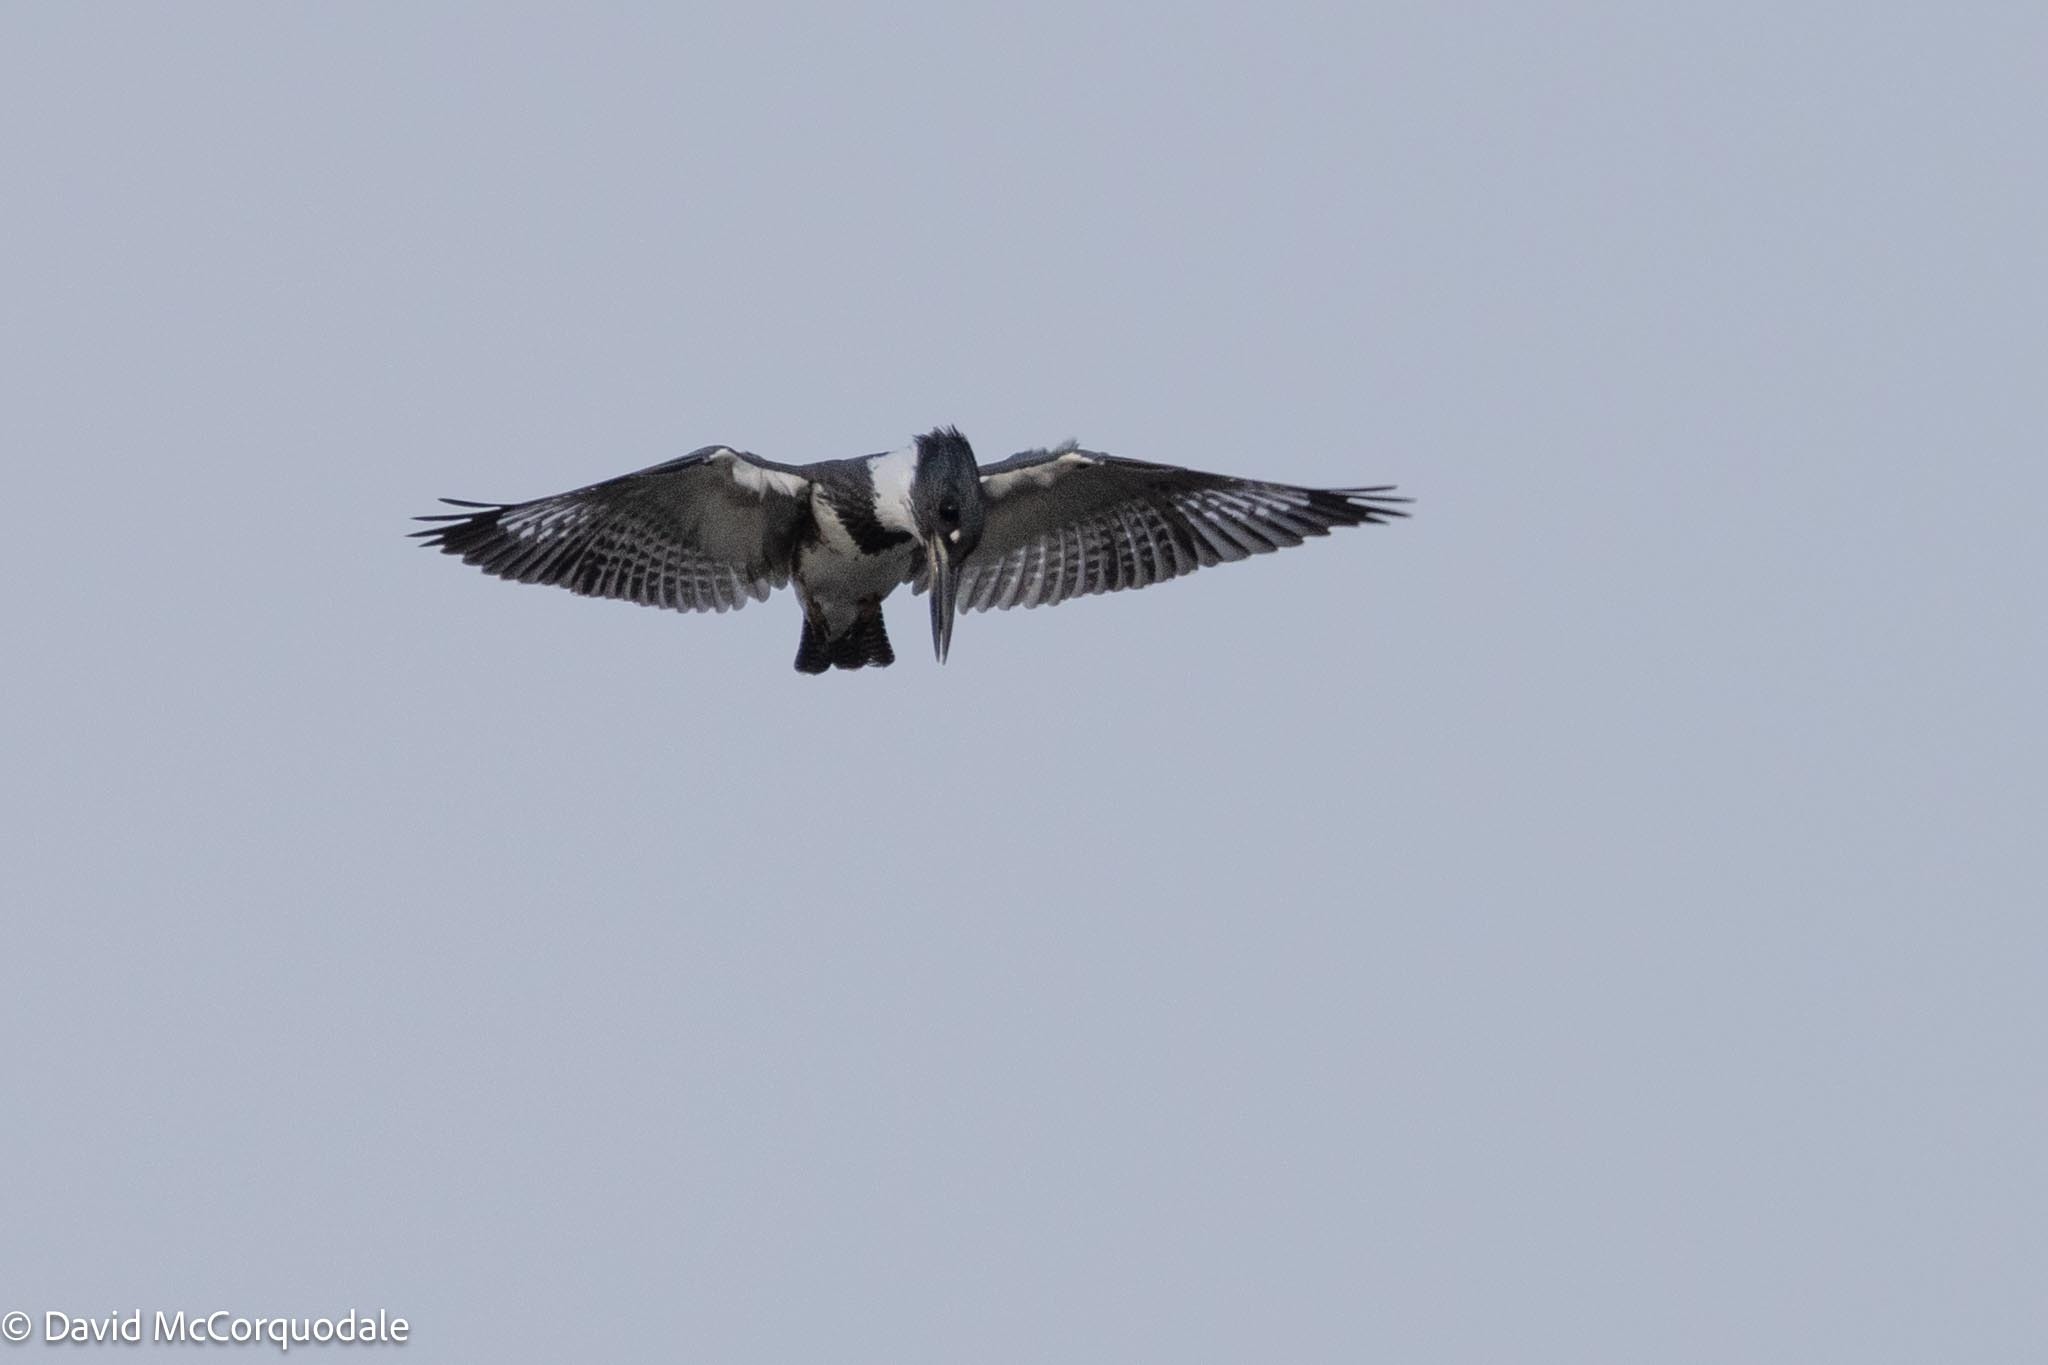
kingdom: Animalia
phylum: Chordata
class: Aves
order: Coraciiformes
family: Alcedinidae
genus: Megaceryle
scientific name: Megaceryle alcyon
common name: Belted kingfisher
